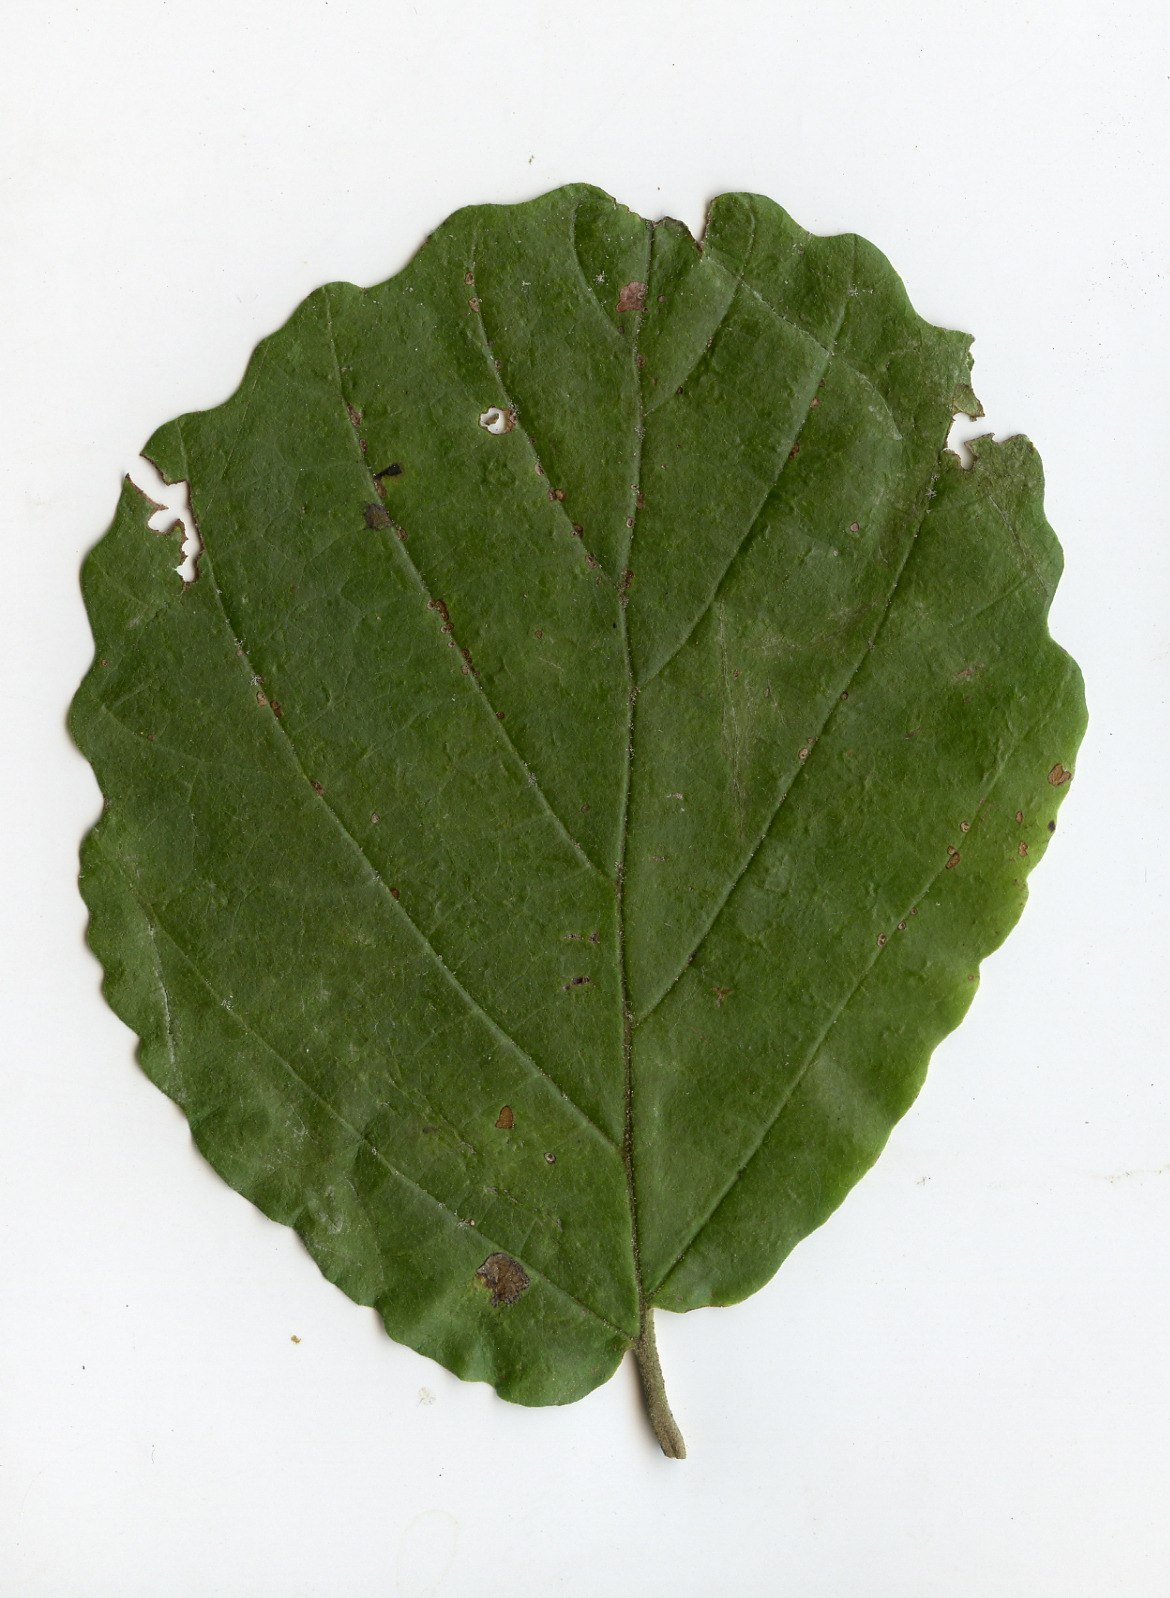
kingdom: Plantae
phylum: Tracheophyta
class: Magnoliopsida
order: Saxifragales
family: Hamamelidaceae
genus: Hamamelis
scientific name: Hamamelis virginiana
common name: Witch-hazel
